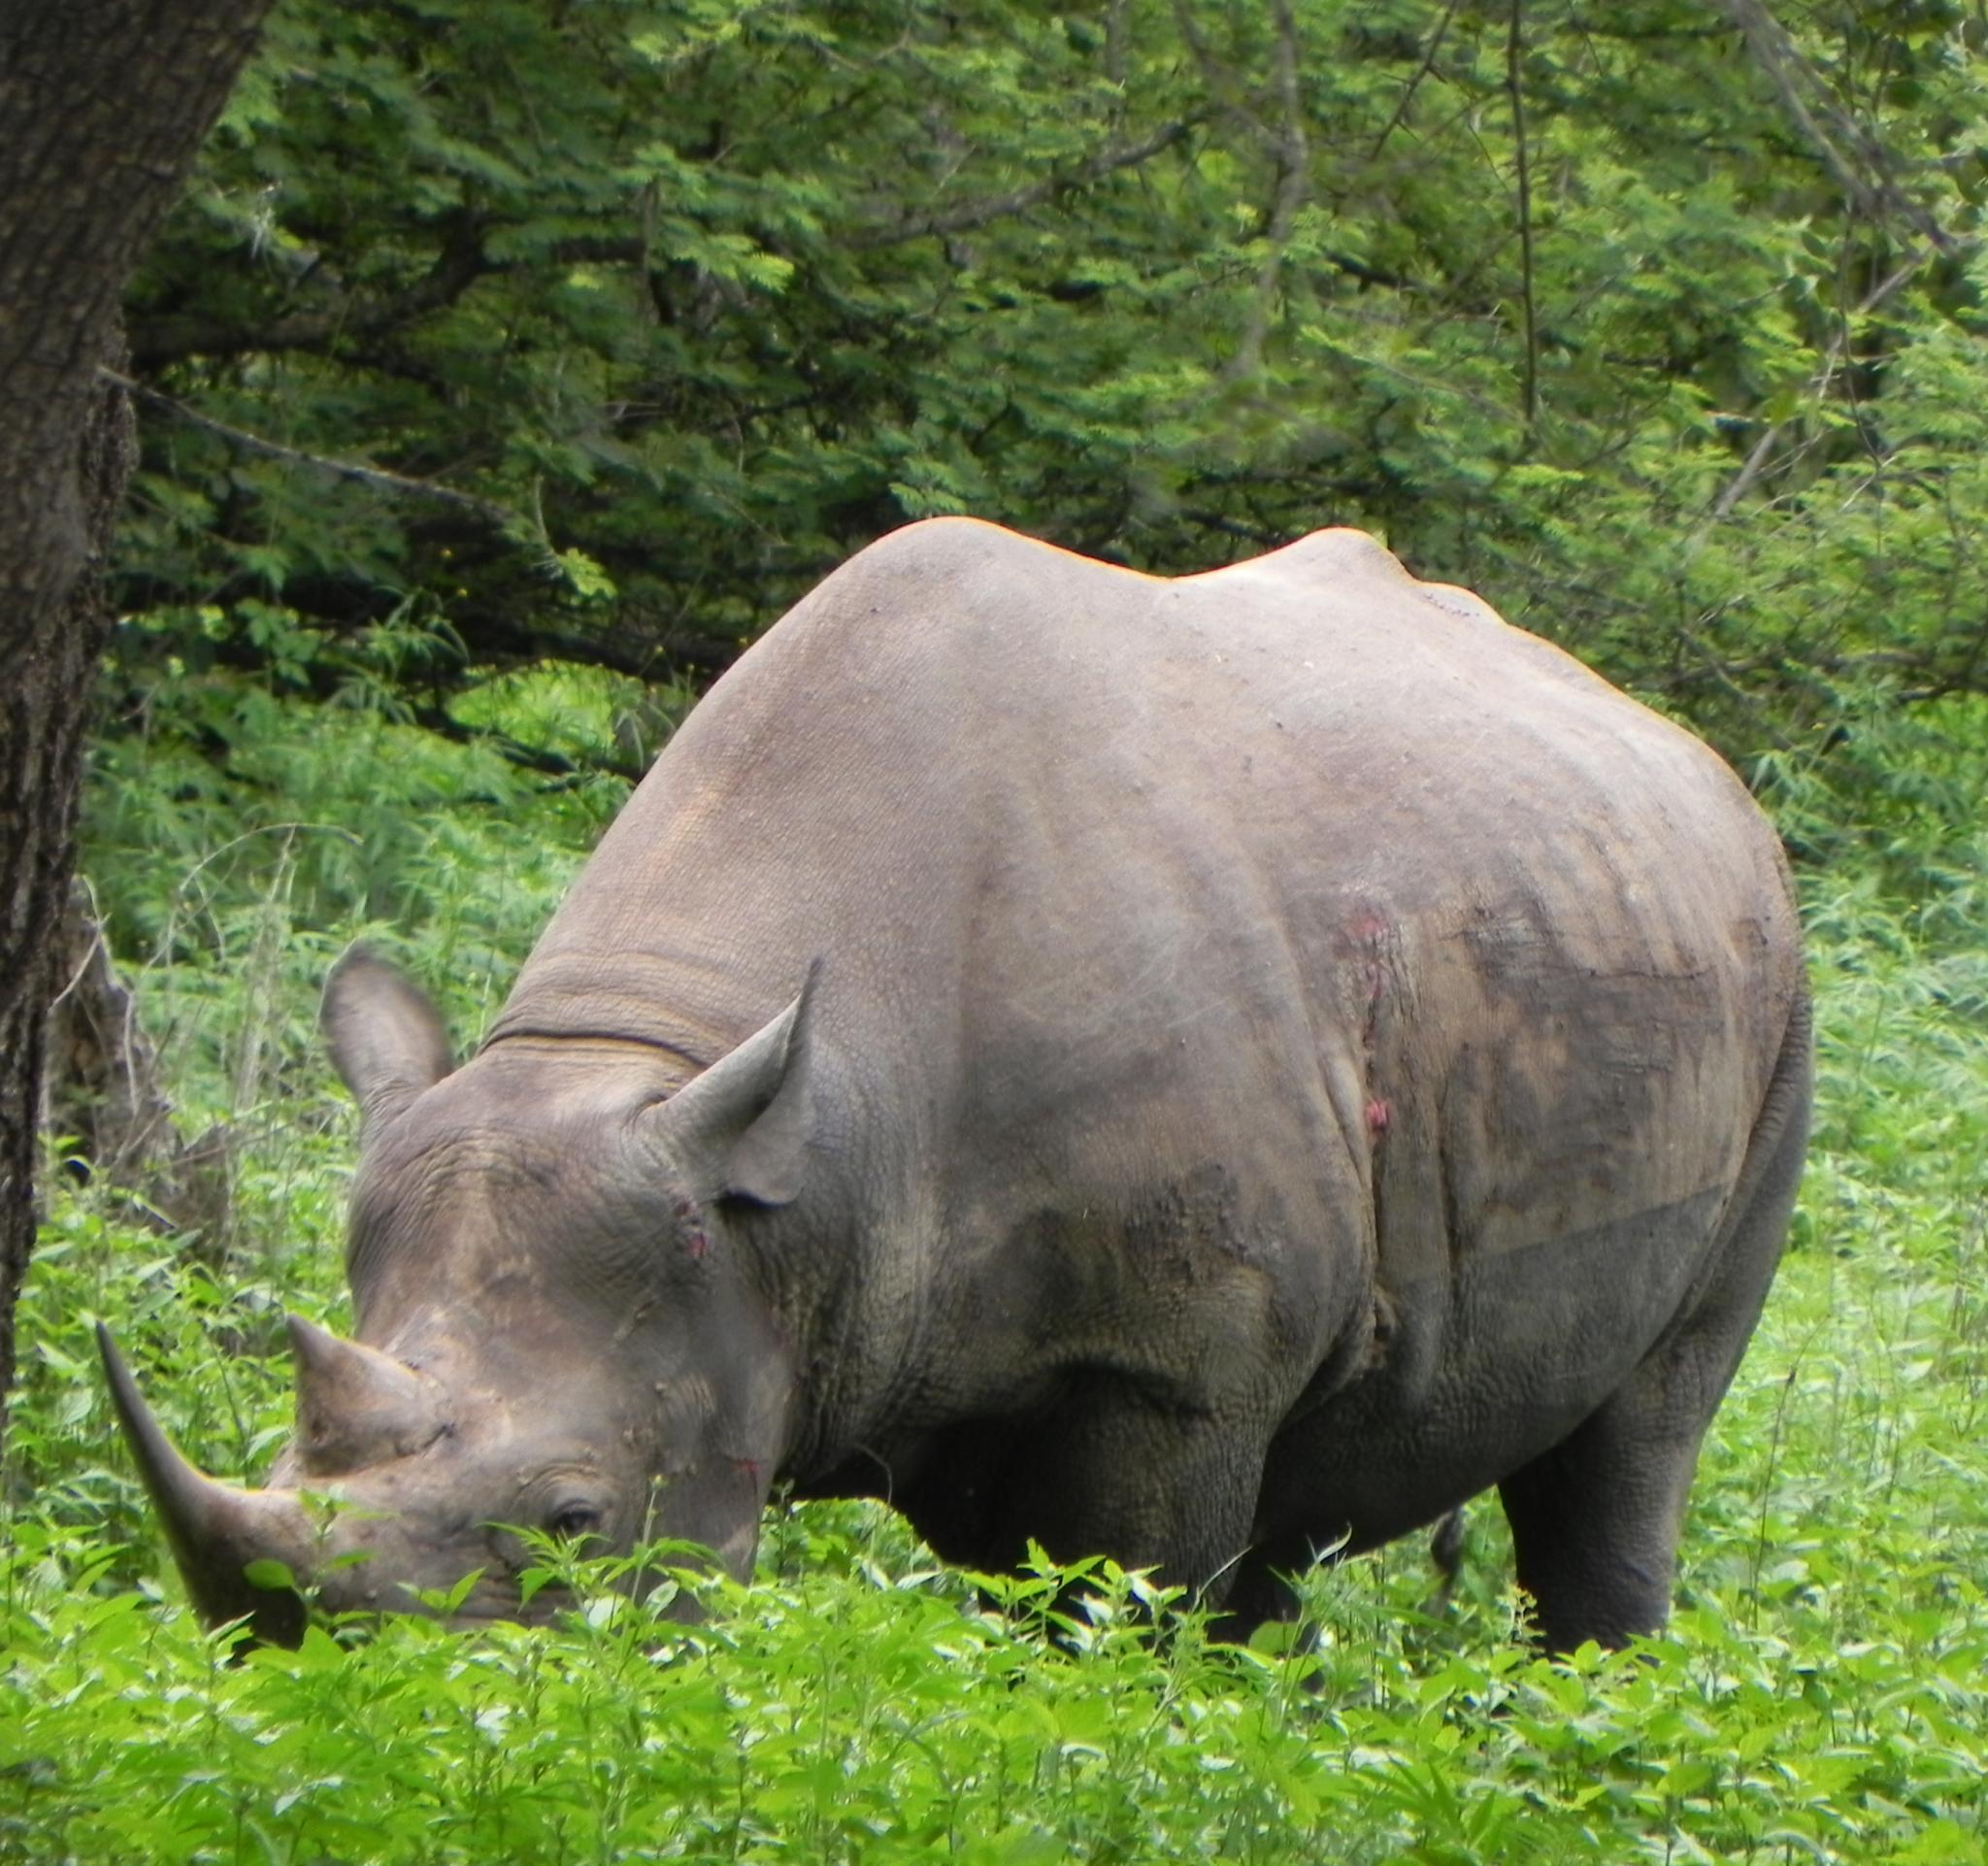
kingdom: Animalia
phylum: Chordata
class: Mammalia
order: Perissodactyla
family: Rhinocerotidae
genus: Diceros
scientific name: Diceros bicornis
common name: Black rhinoceros
